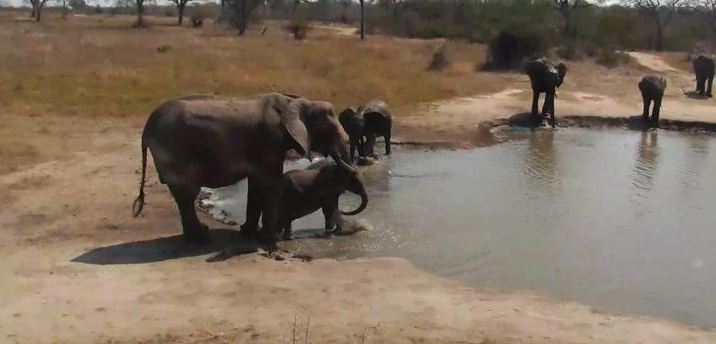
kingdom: Animalia
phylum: Chordata
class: Mammalia
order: Proboscidea
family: Elephantidae
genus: Loxodonta
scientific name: Loxodonta africana
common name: African elephant
